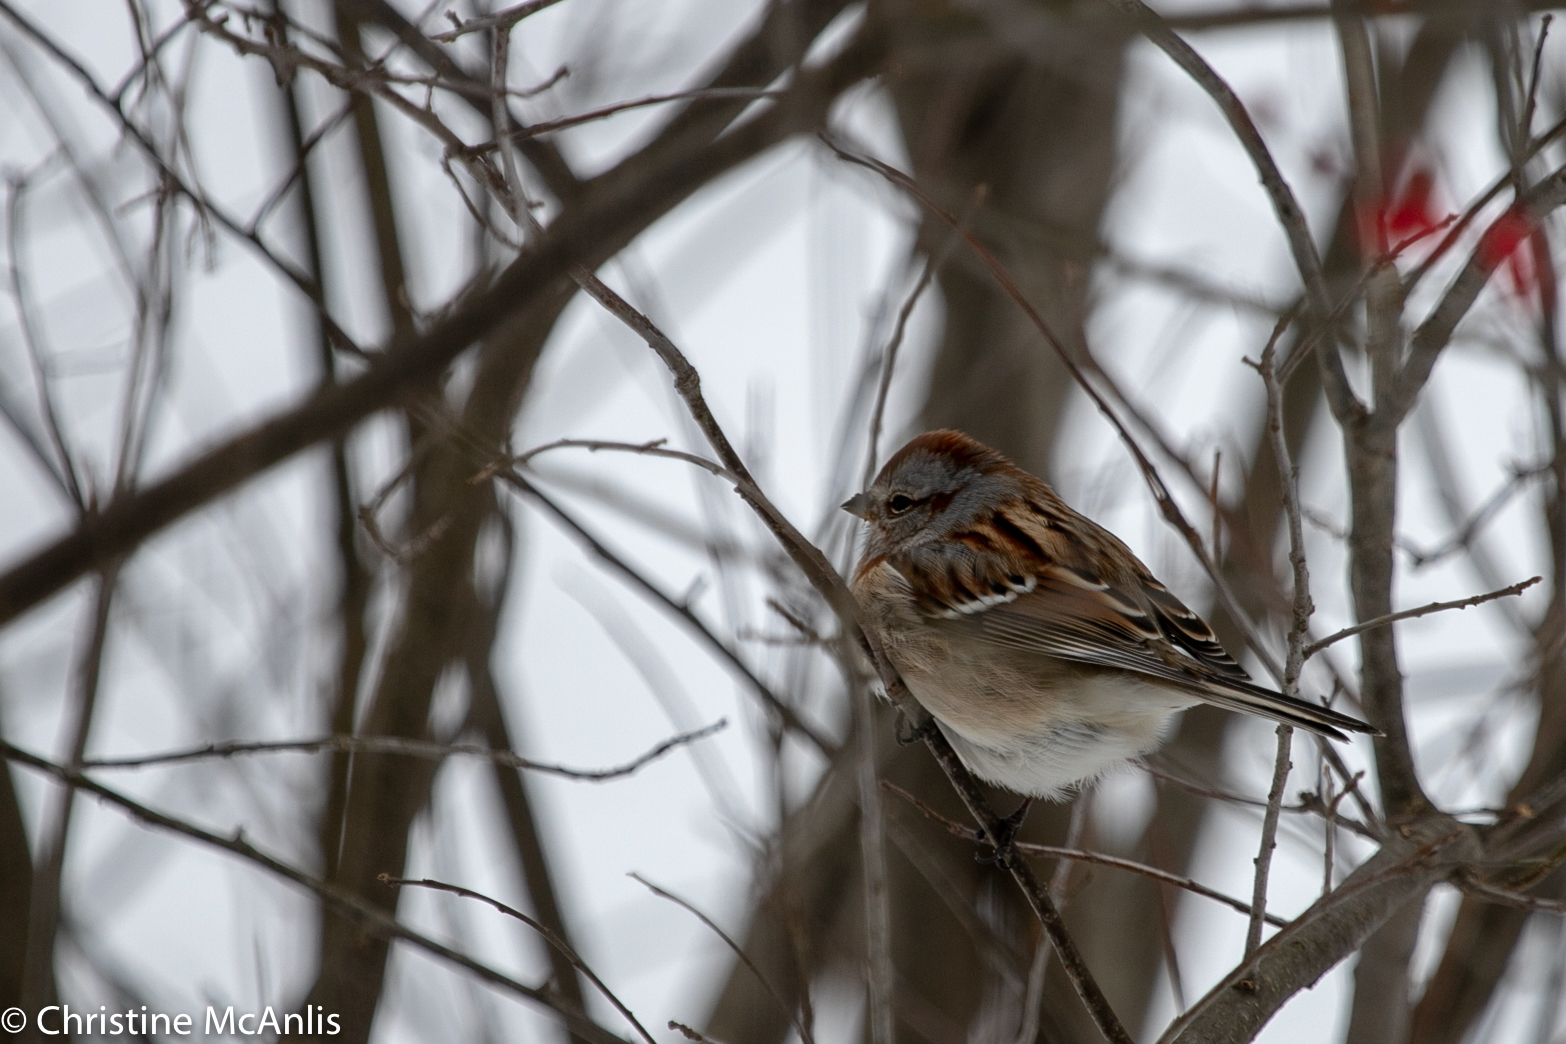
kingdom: Animalia
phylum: Chordata
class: Aves
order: Passeriformes
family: Passerellidae
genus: Spizelloides
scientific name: Spizelloides arborea
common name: American tree sparrow
